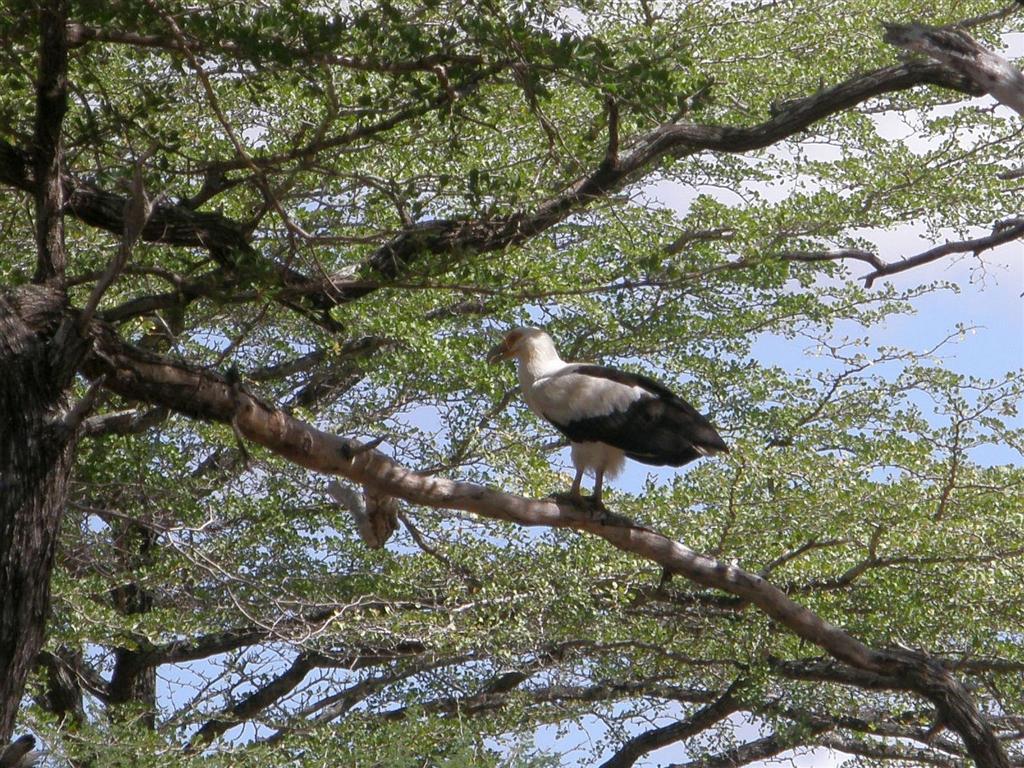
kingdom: Animalia
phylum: Chordata
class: Aves
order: Accipitriformes
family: Accipitridae
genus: Gypohierax
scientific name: Gypohierax angolensis
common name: Palm-nut vulture
